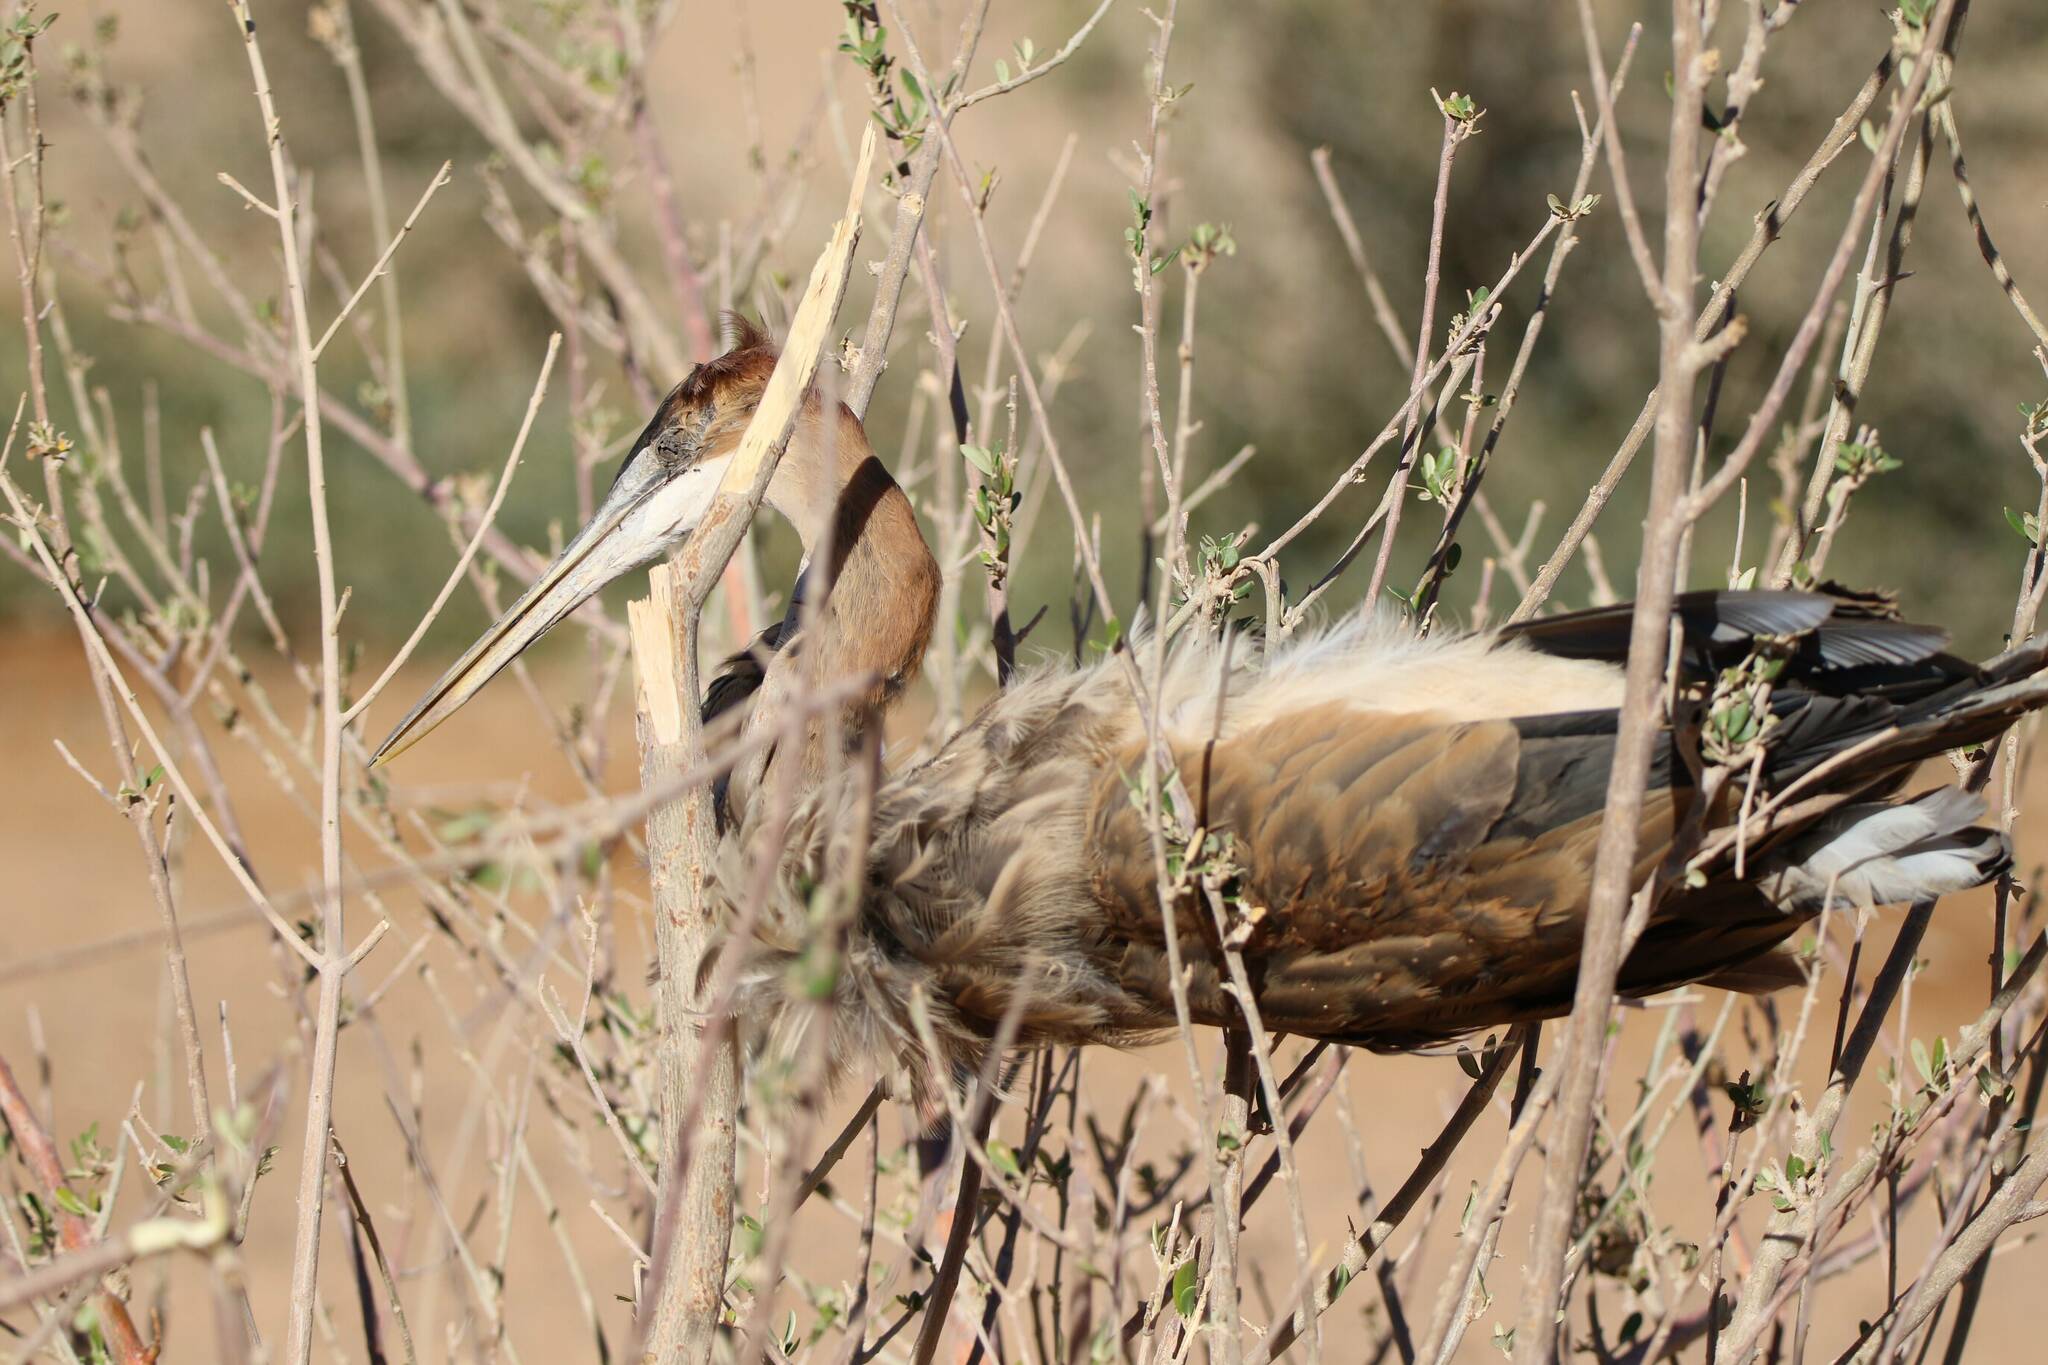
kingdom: Animalia
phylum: Chordata
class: Aves
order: Pelecaniformes
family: Ardeidae
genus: Ardea
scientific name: Ardea purpurea
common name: Purple heron
